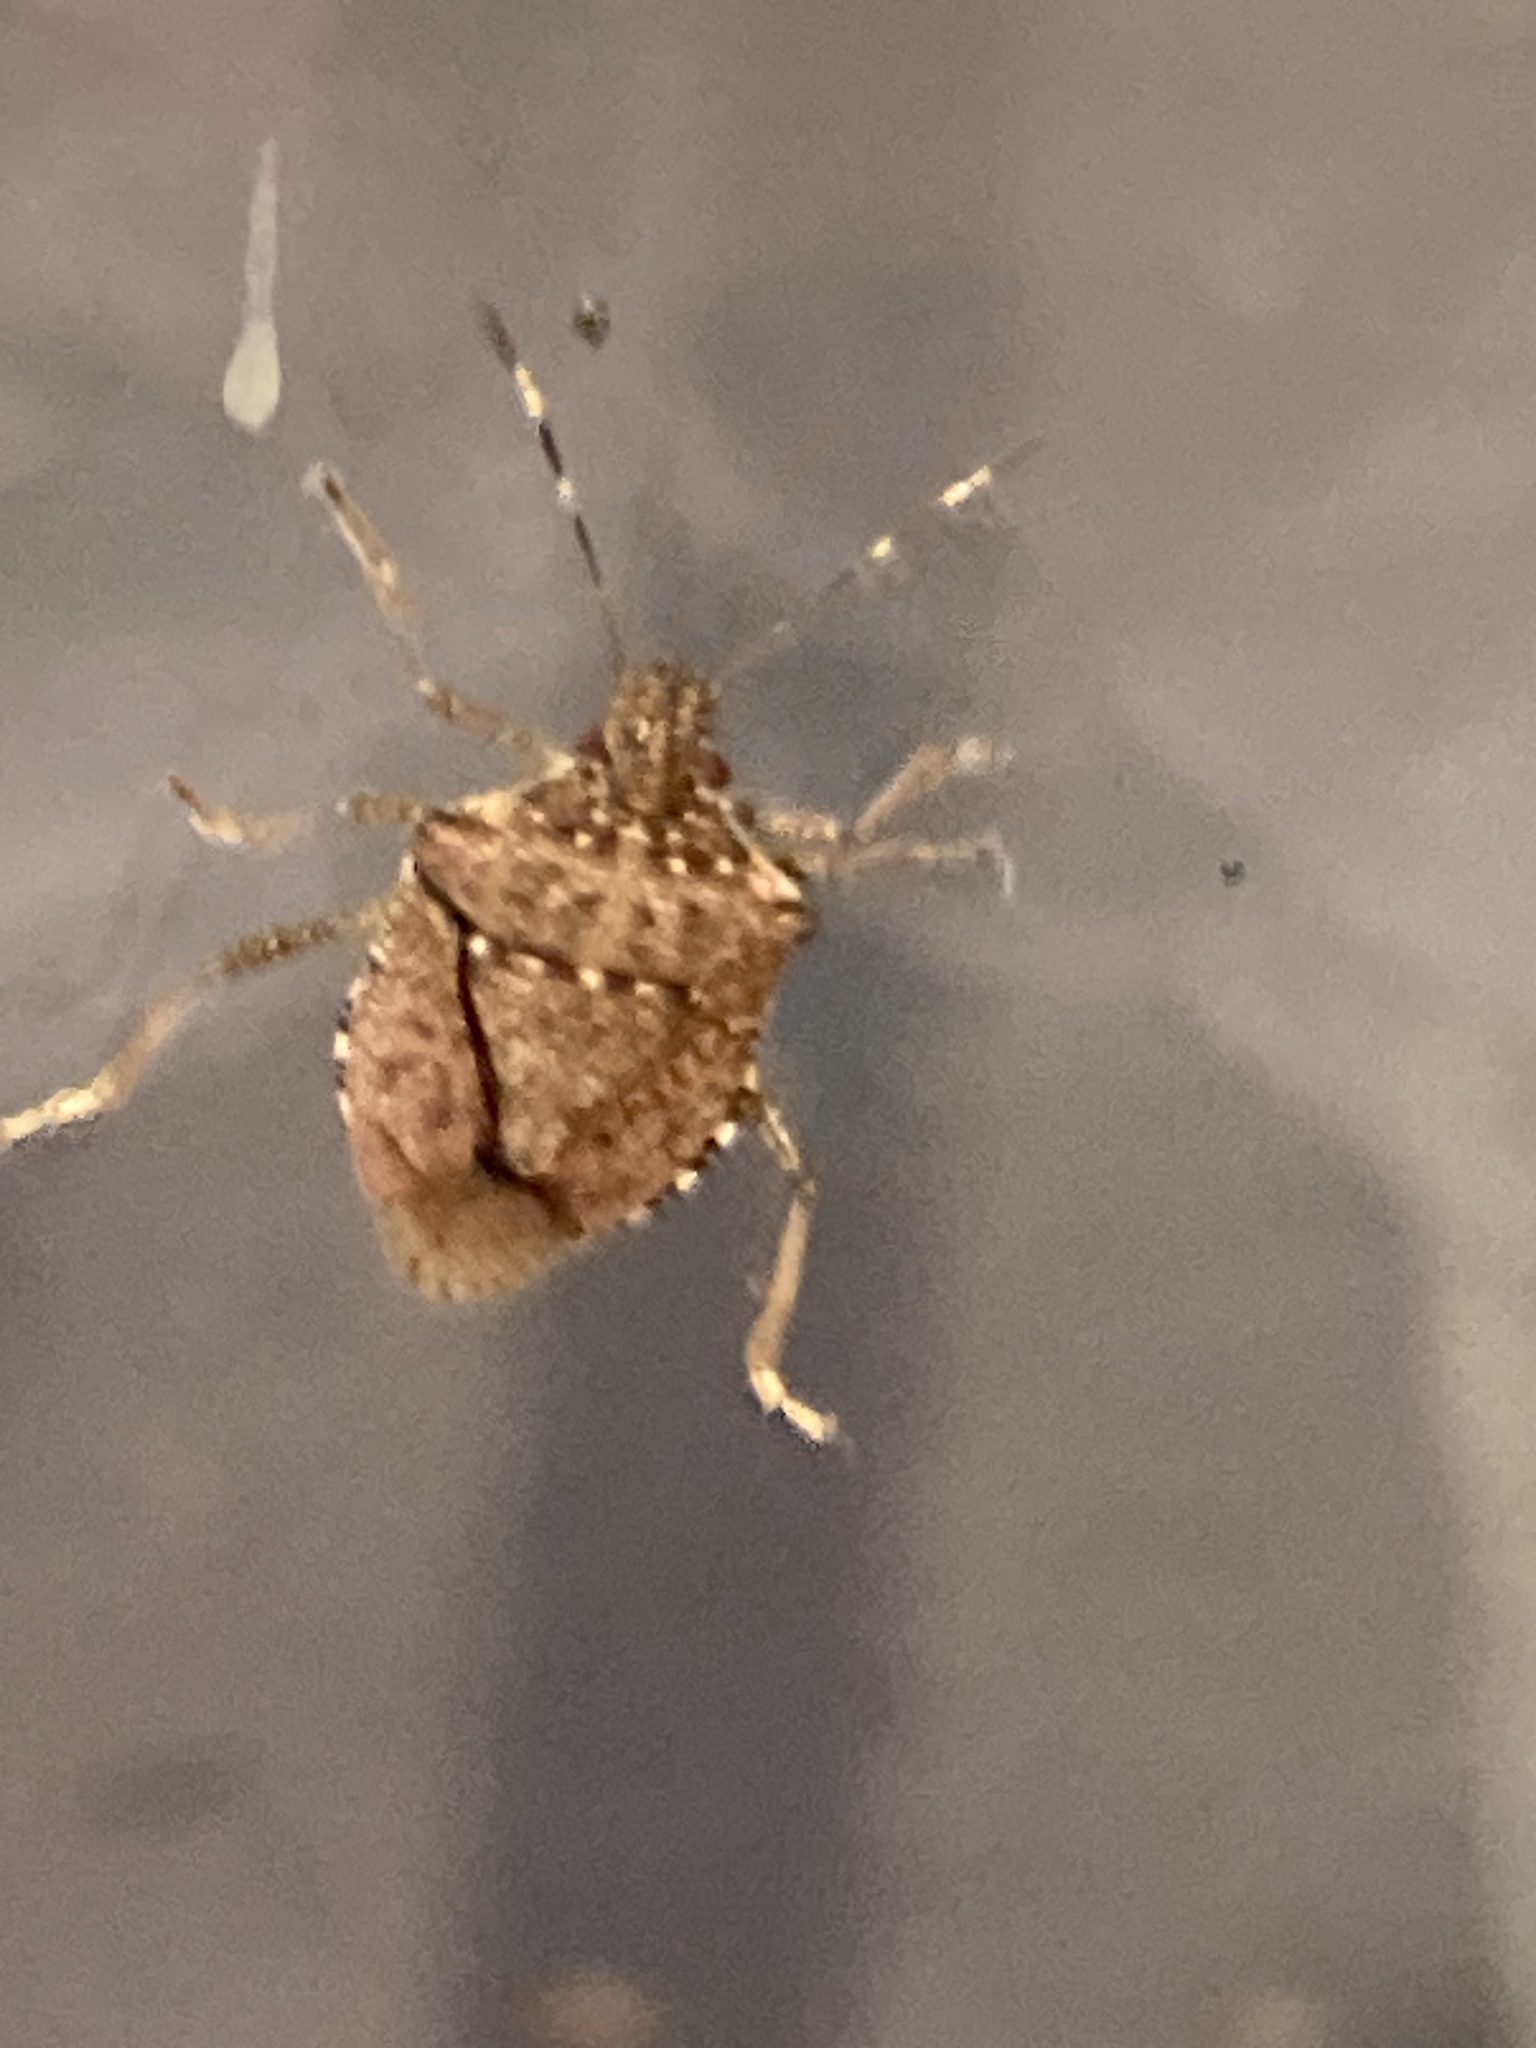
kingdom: Animalia
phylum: Arthropoda
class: Insecta
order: Hemiptera
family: Pentatomidae
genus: Halyomorpha
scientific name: Halyomorpha halys
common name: Brown marmorated stink bug
